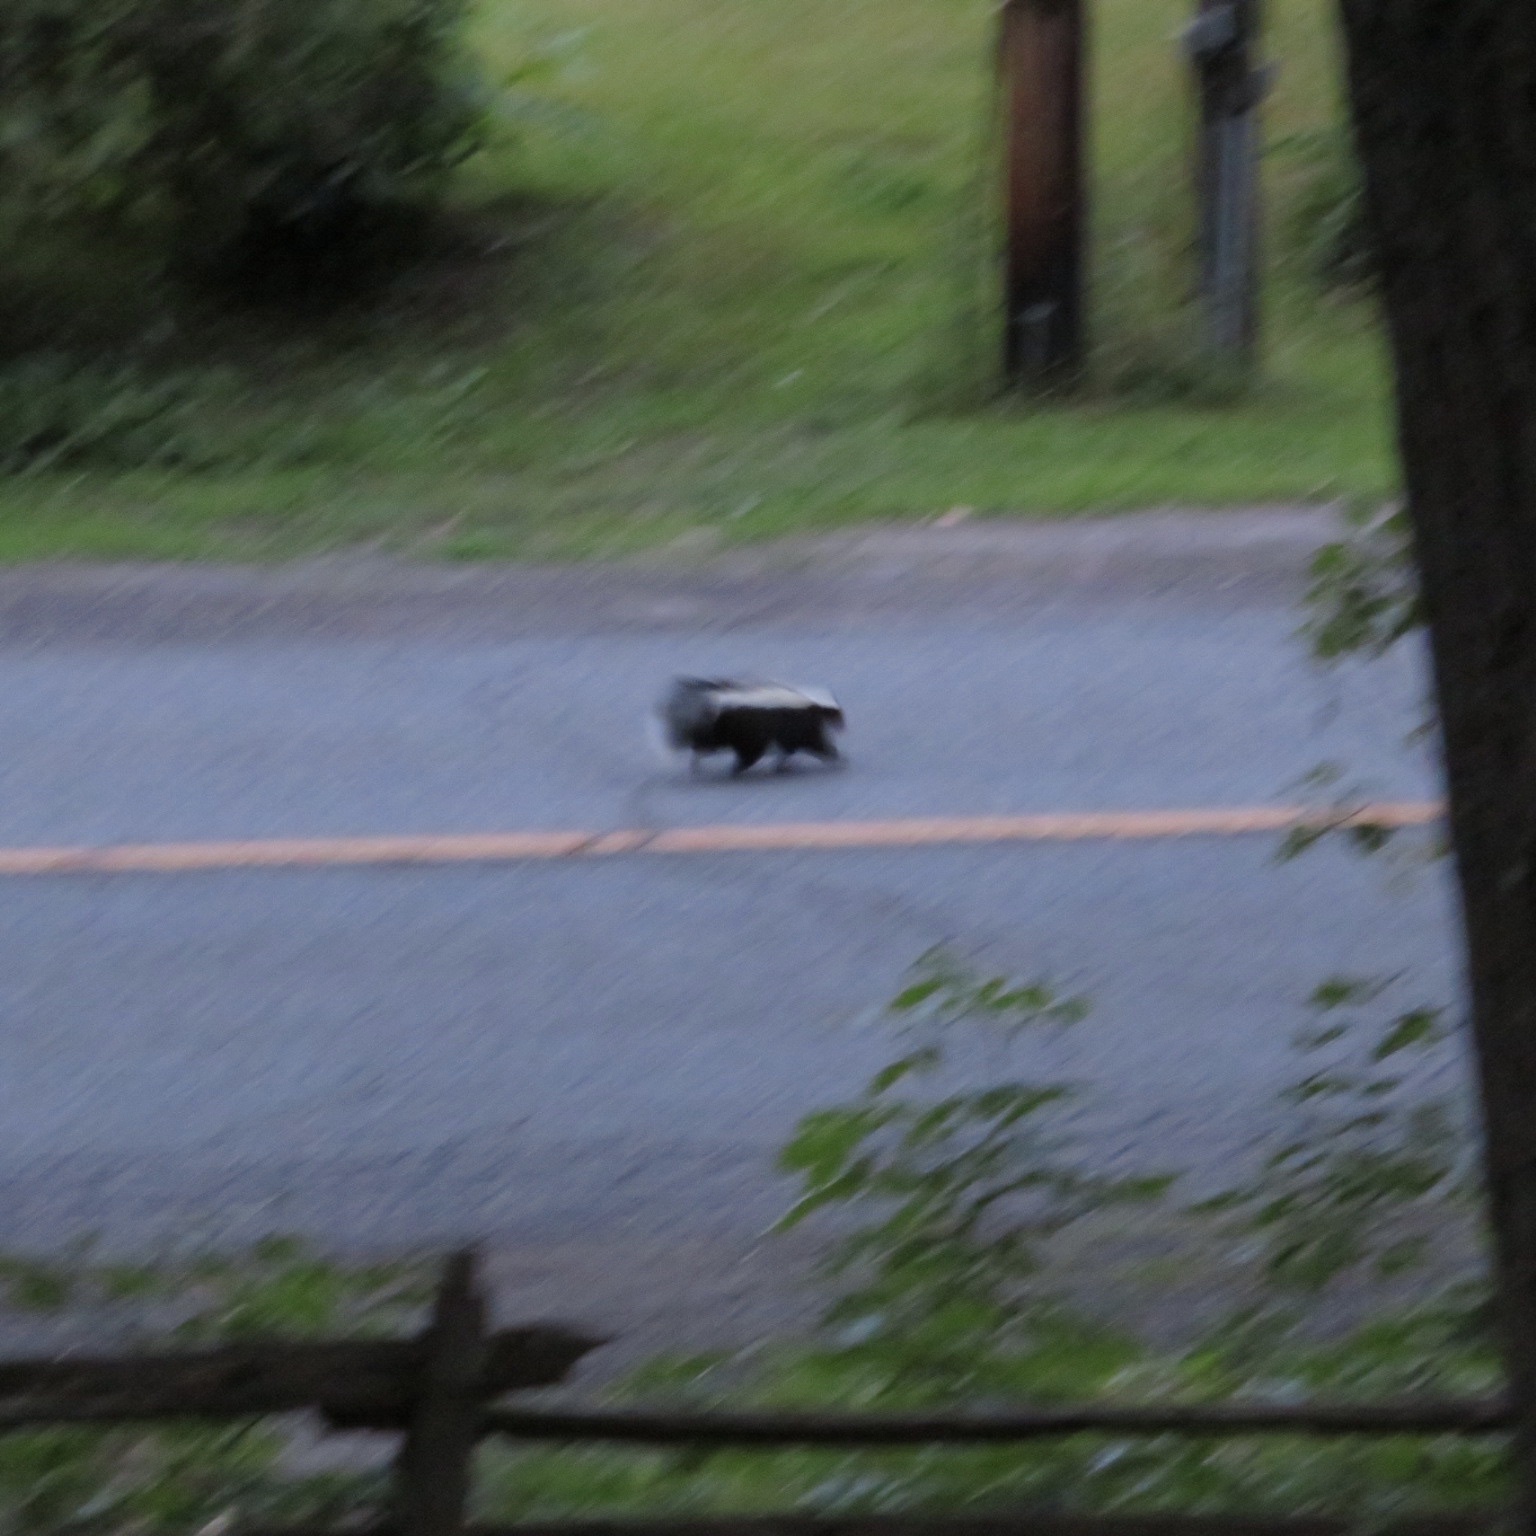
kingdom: Animalia
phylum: Chordata
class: Mammalia
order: Carnivora
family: Mephitidae
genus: Mephitis
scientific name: Mephitis mephitis
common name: Striped skunk
